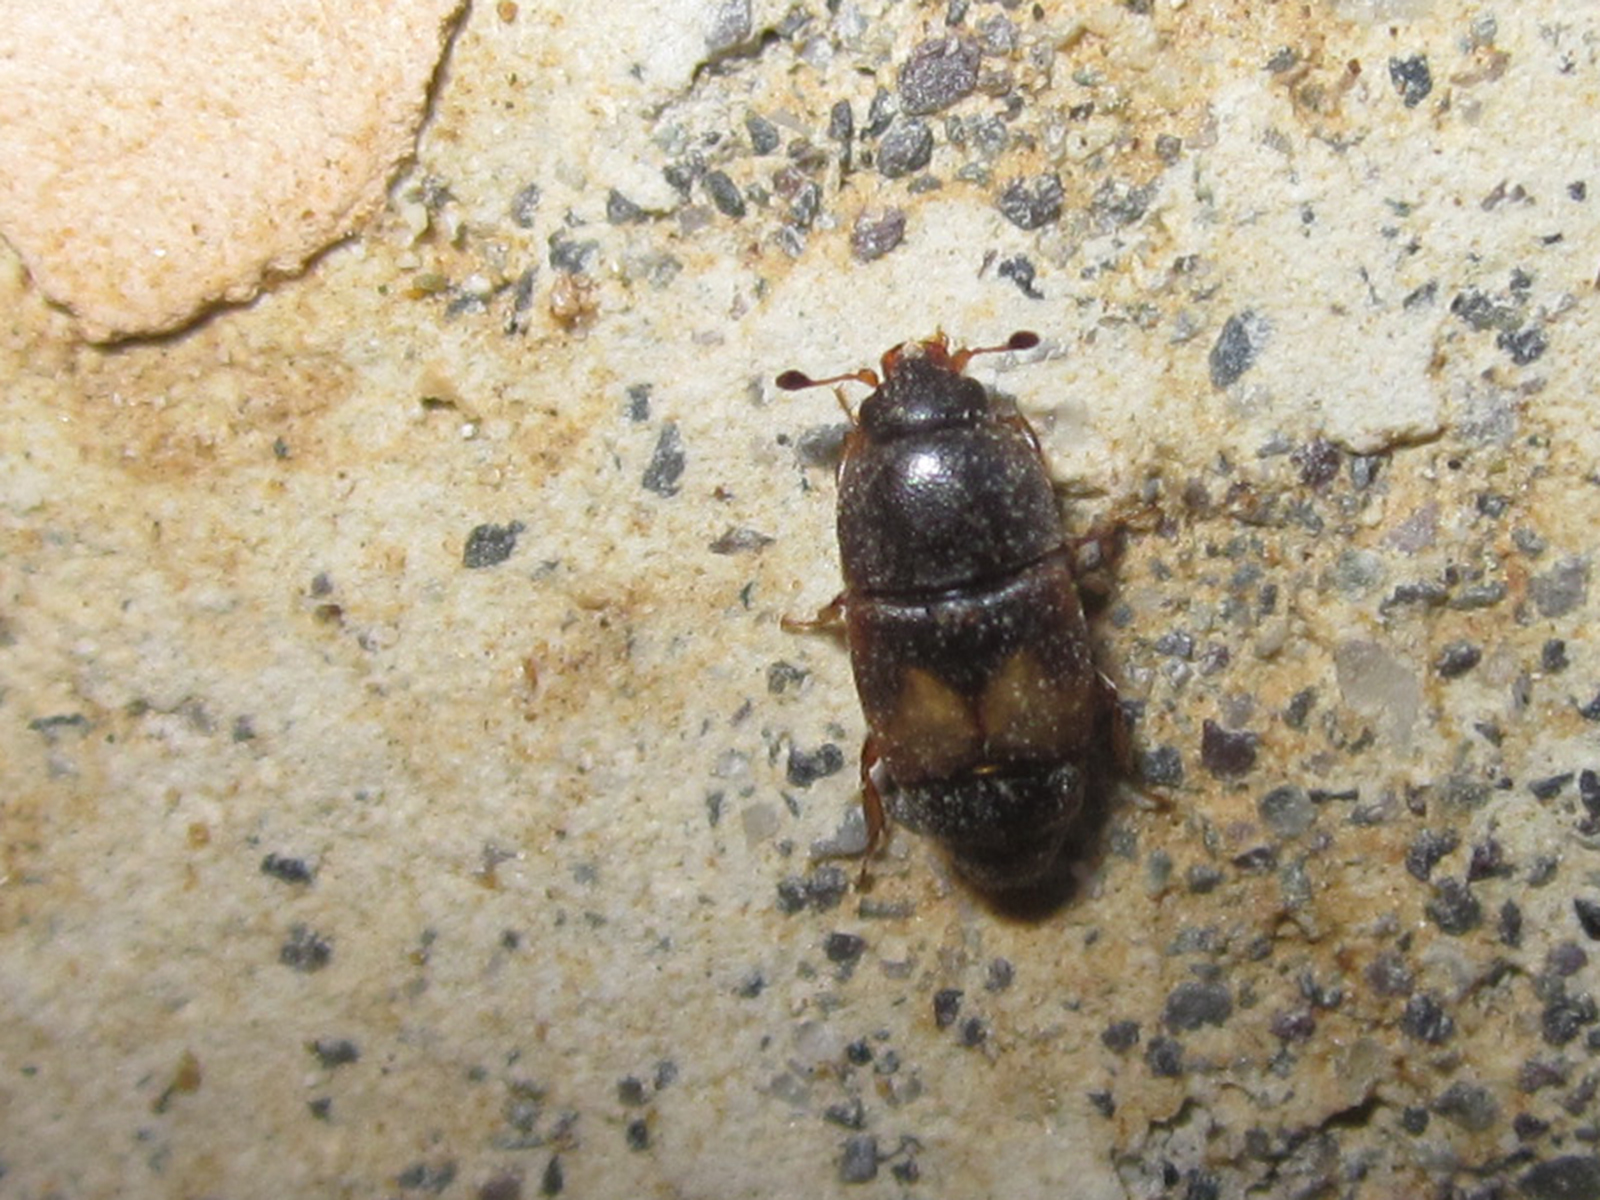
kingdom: Animalia
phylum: Arthropoda
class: Insecta
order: Coleoptera
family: Nitidulidae
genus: Carpophilus
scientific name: Carpophilus hemipterus
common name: Dried fruit beetle
